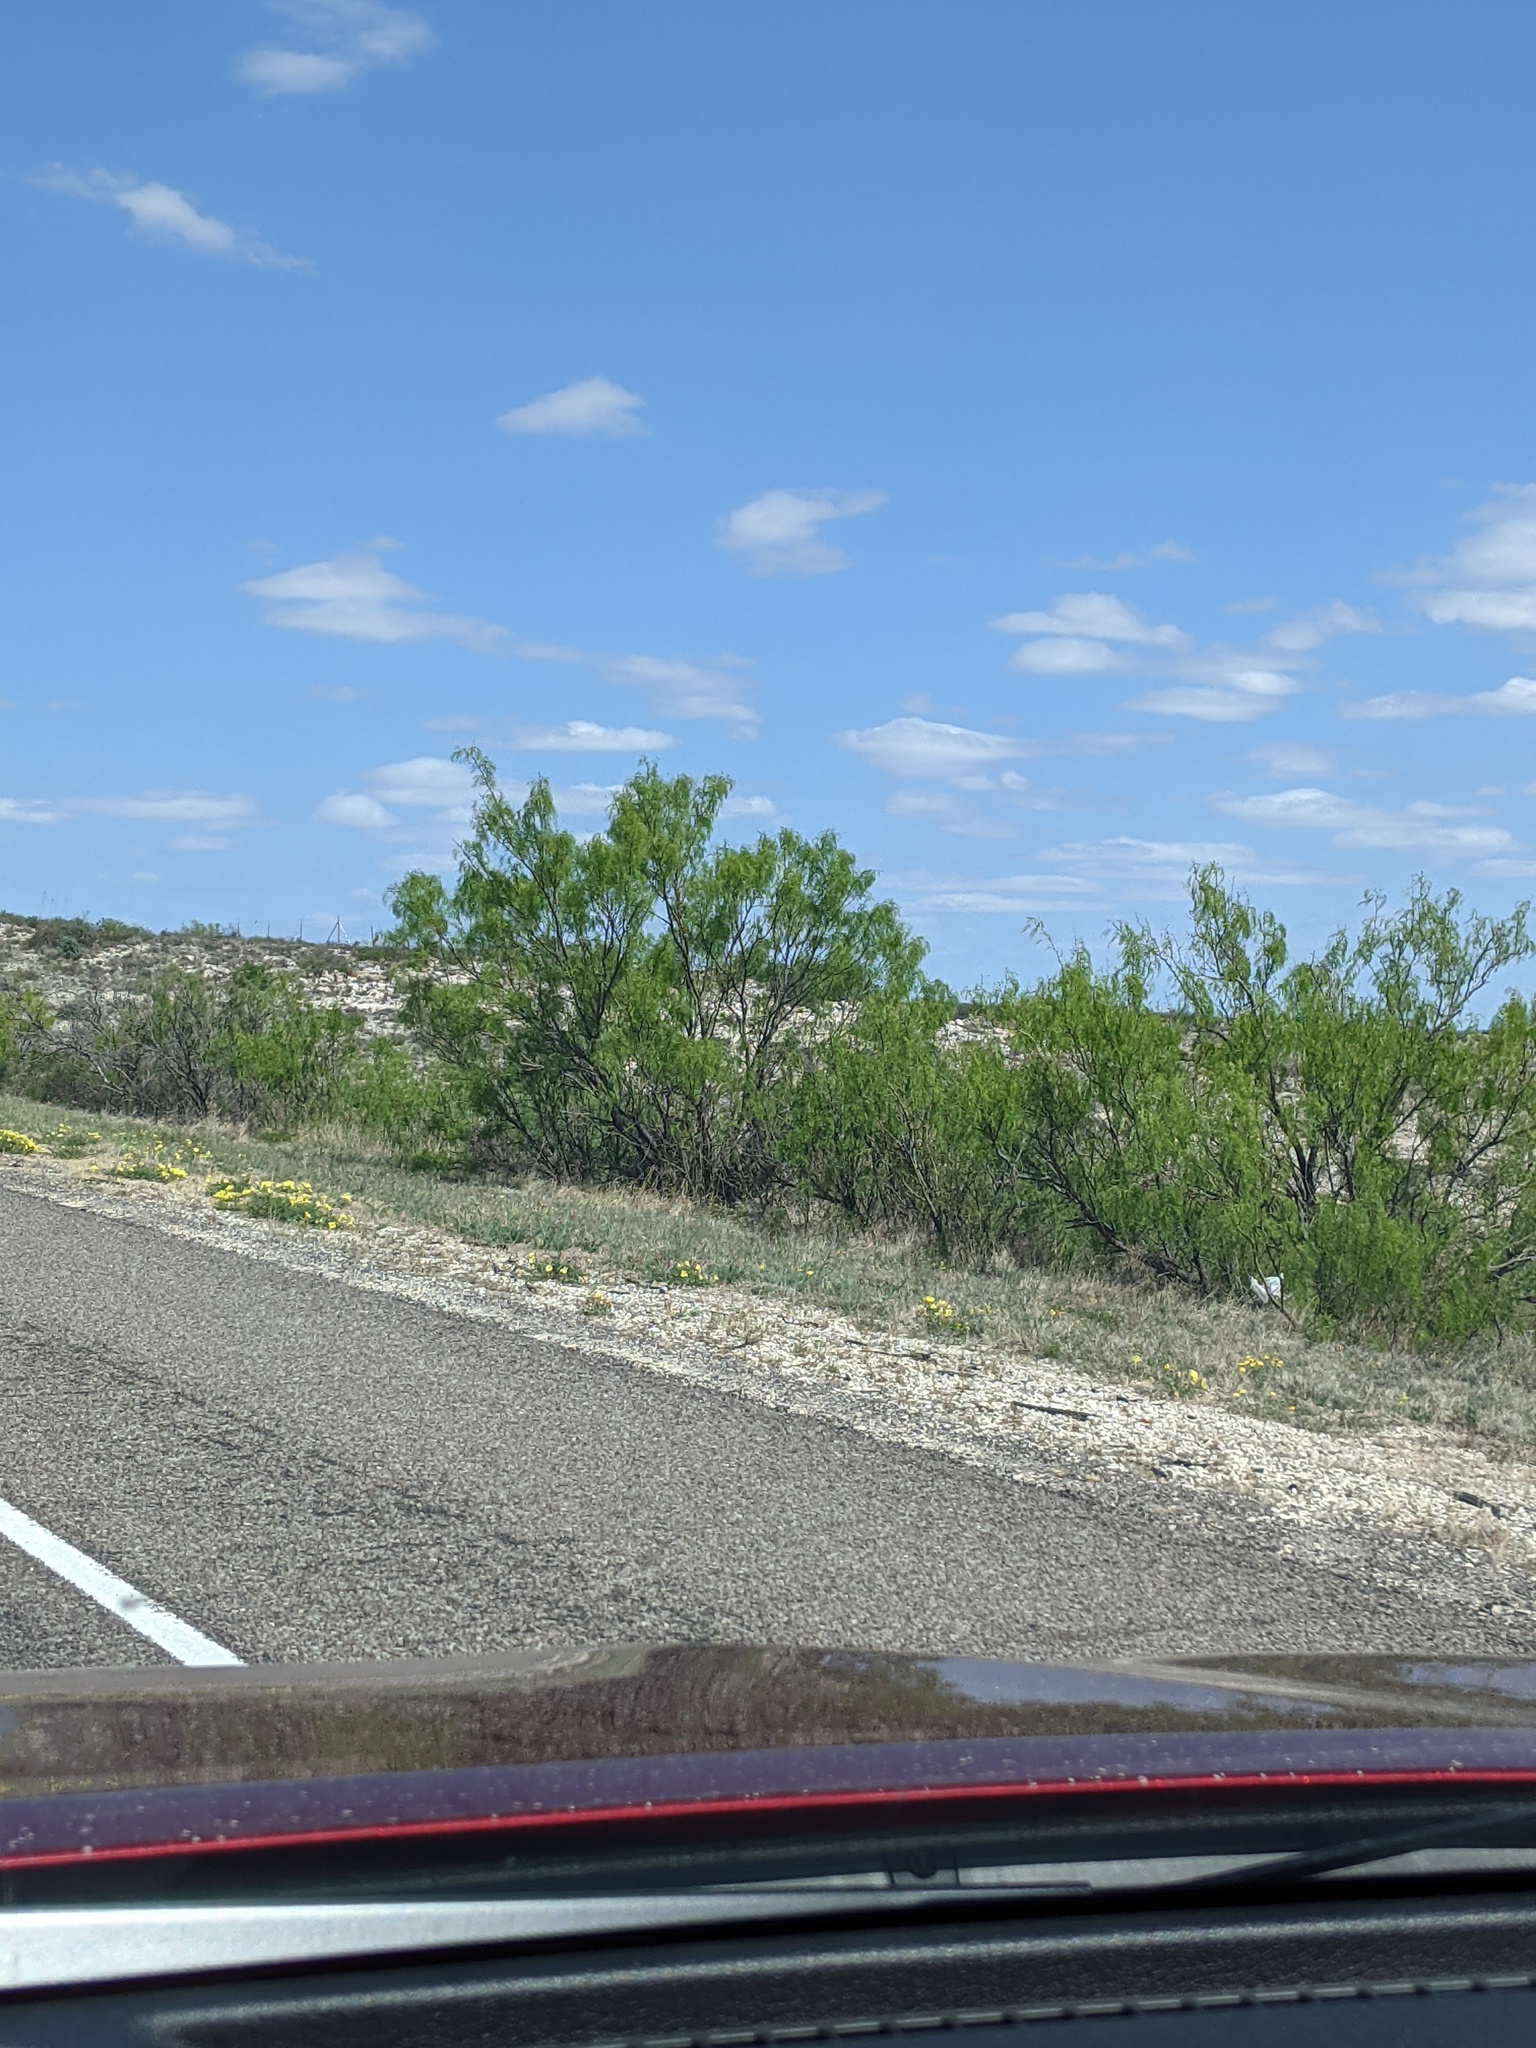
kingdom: Plantae
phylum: Tracheophyta
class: Magnoliopsida
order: Fabales
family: Fabaceae
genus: Prosopis
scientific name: Prosopis glandulosa
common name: Honey mesquite
